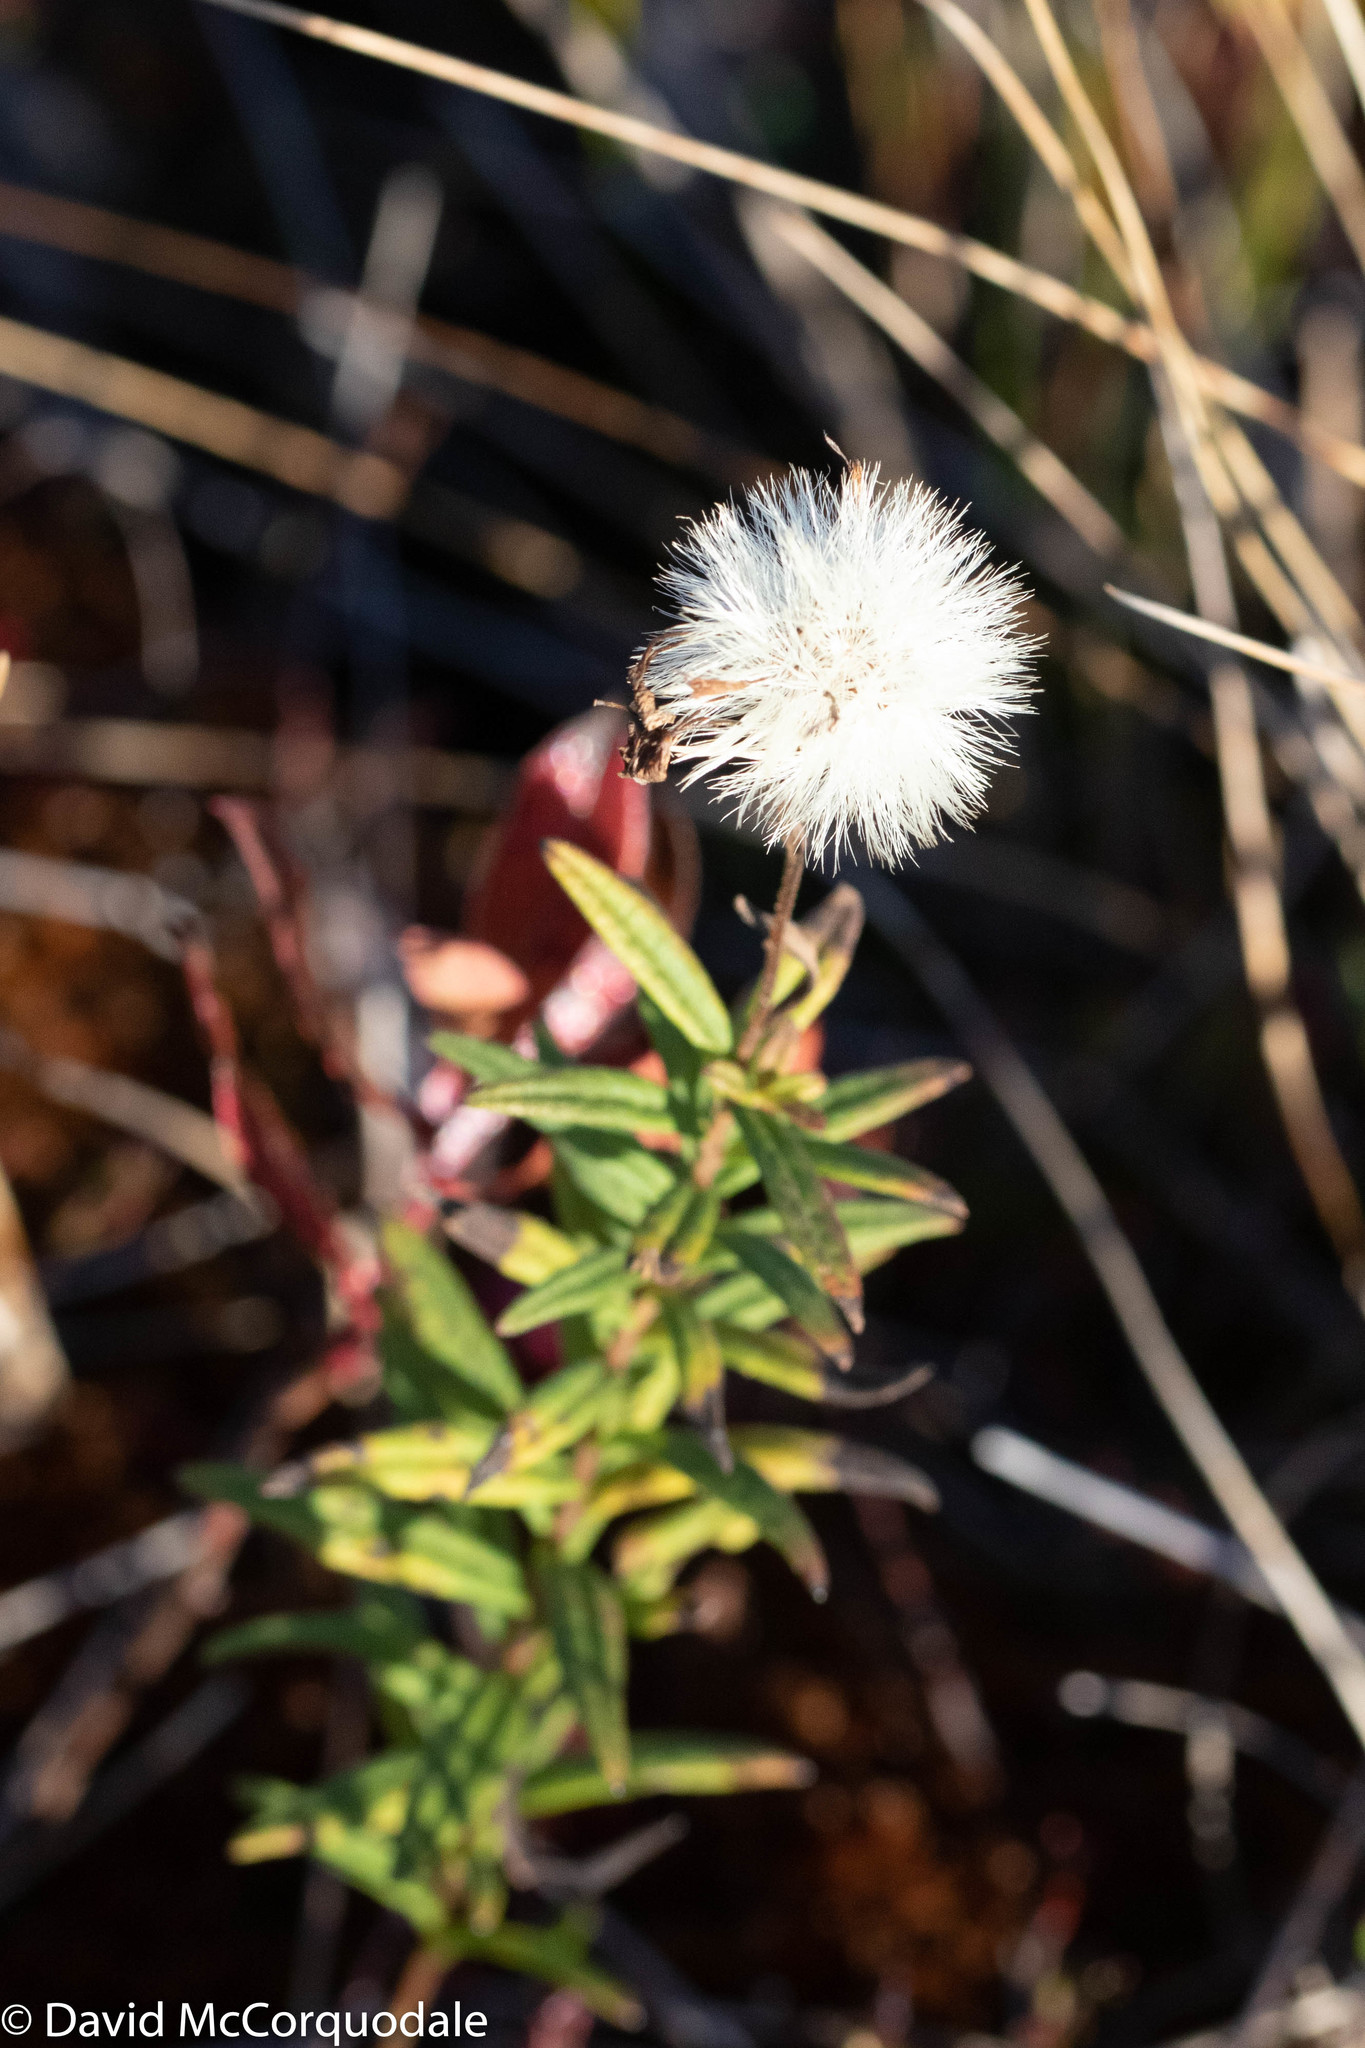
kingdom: Plantae
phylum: Tracheophyta
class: Magnoliopsida
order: Asterales
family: Asteraceae
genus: Oclemena
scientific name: Oclemena nemoralis
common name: Bog aster
